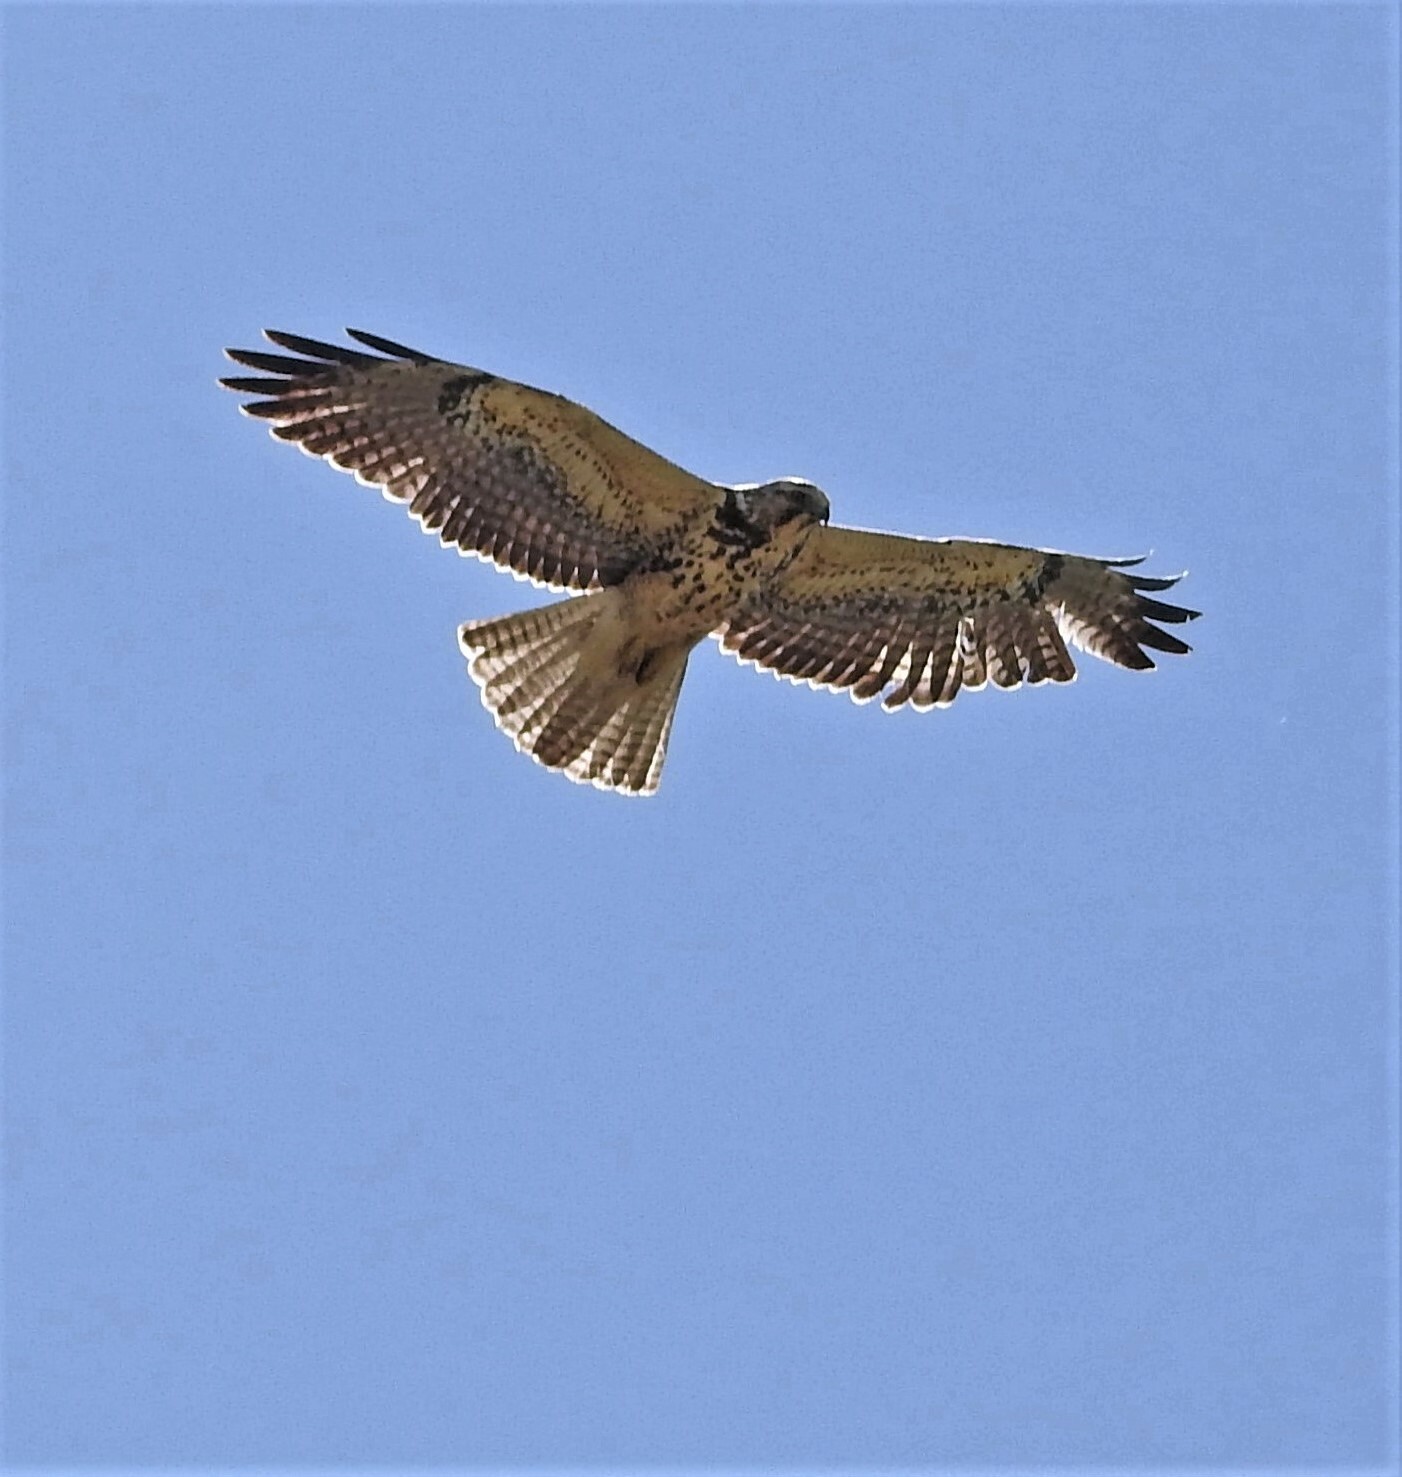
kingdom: Animalia
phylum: Chordata
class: Aves
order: Accipitriformes
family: Accipitridae
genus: Buteo
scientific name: Buteo swainsoni
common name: Swainson's hawk
